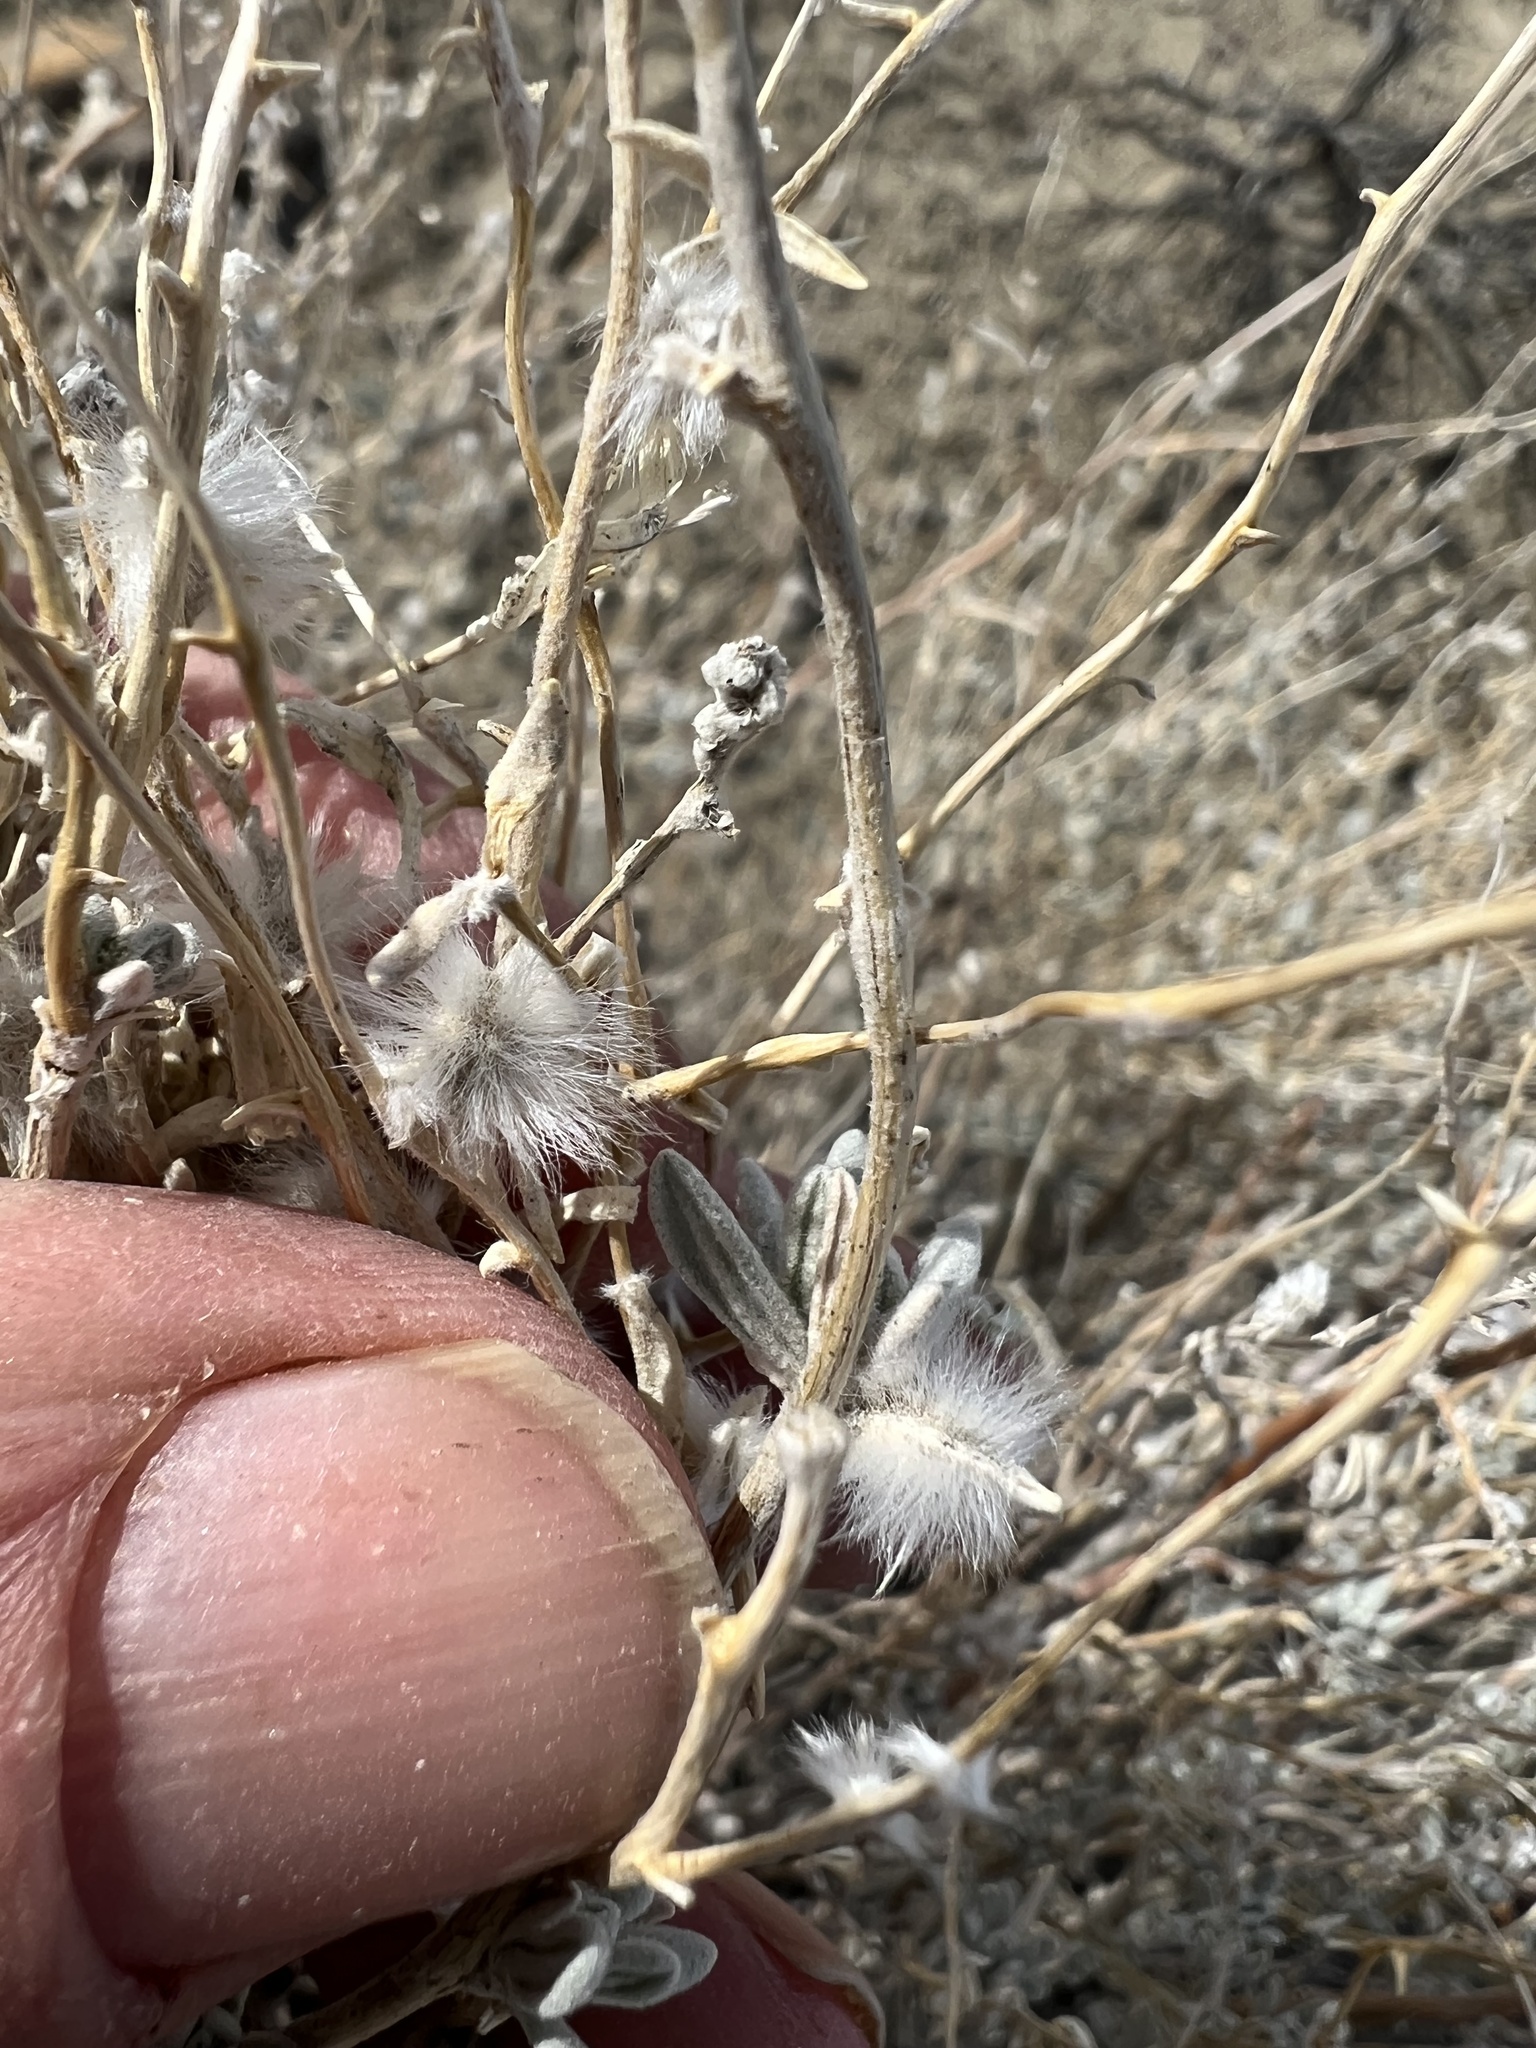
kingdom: Plantae
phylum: Tracheophyta
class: Magnoliopsida
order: Caryophyllales
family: Amaranthaceae
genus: Krascheninnikovia
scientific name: Krascheninnikovia lanata
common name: Winterfat
